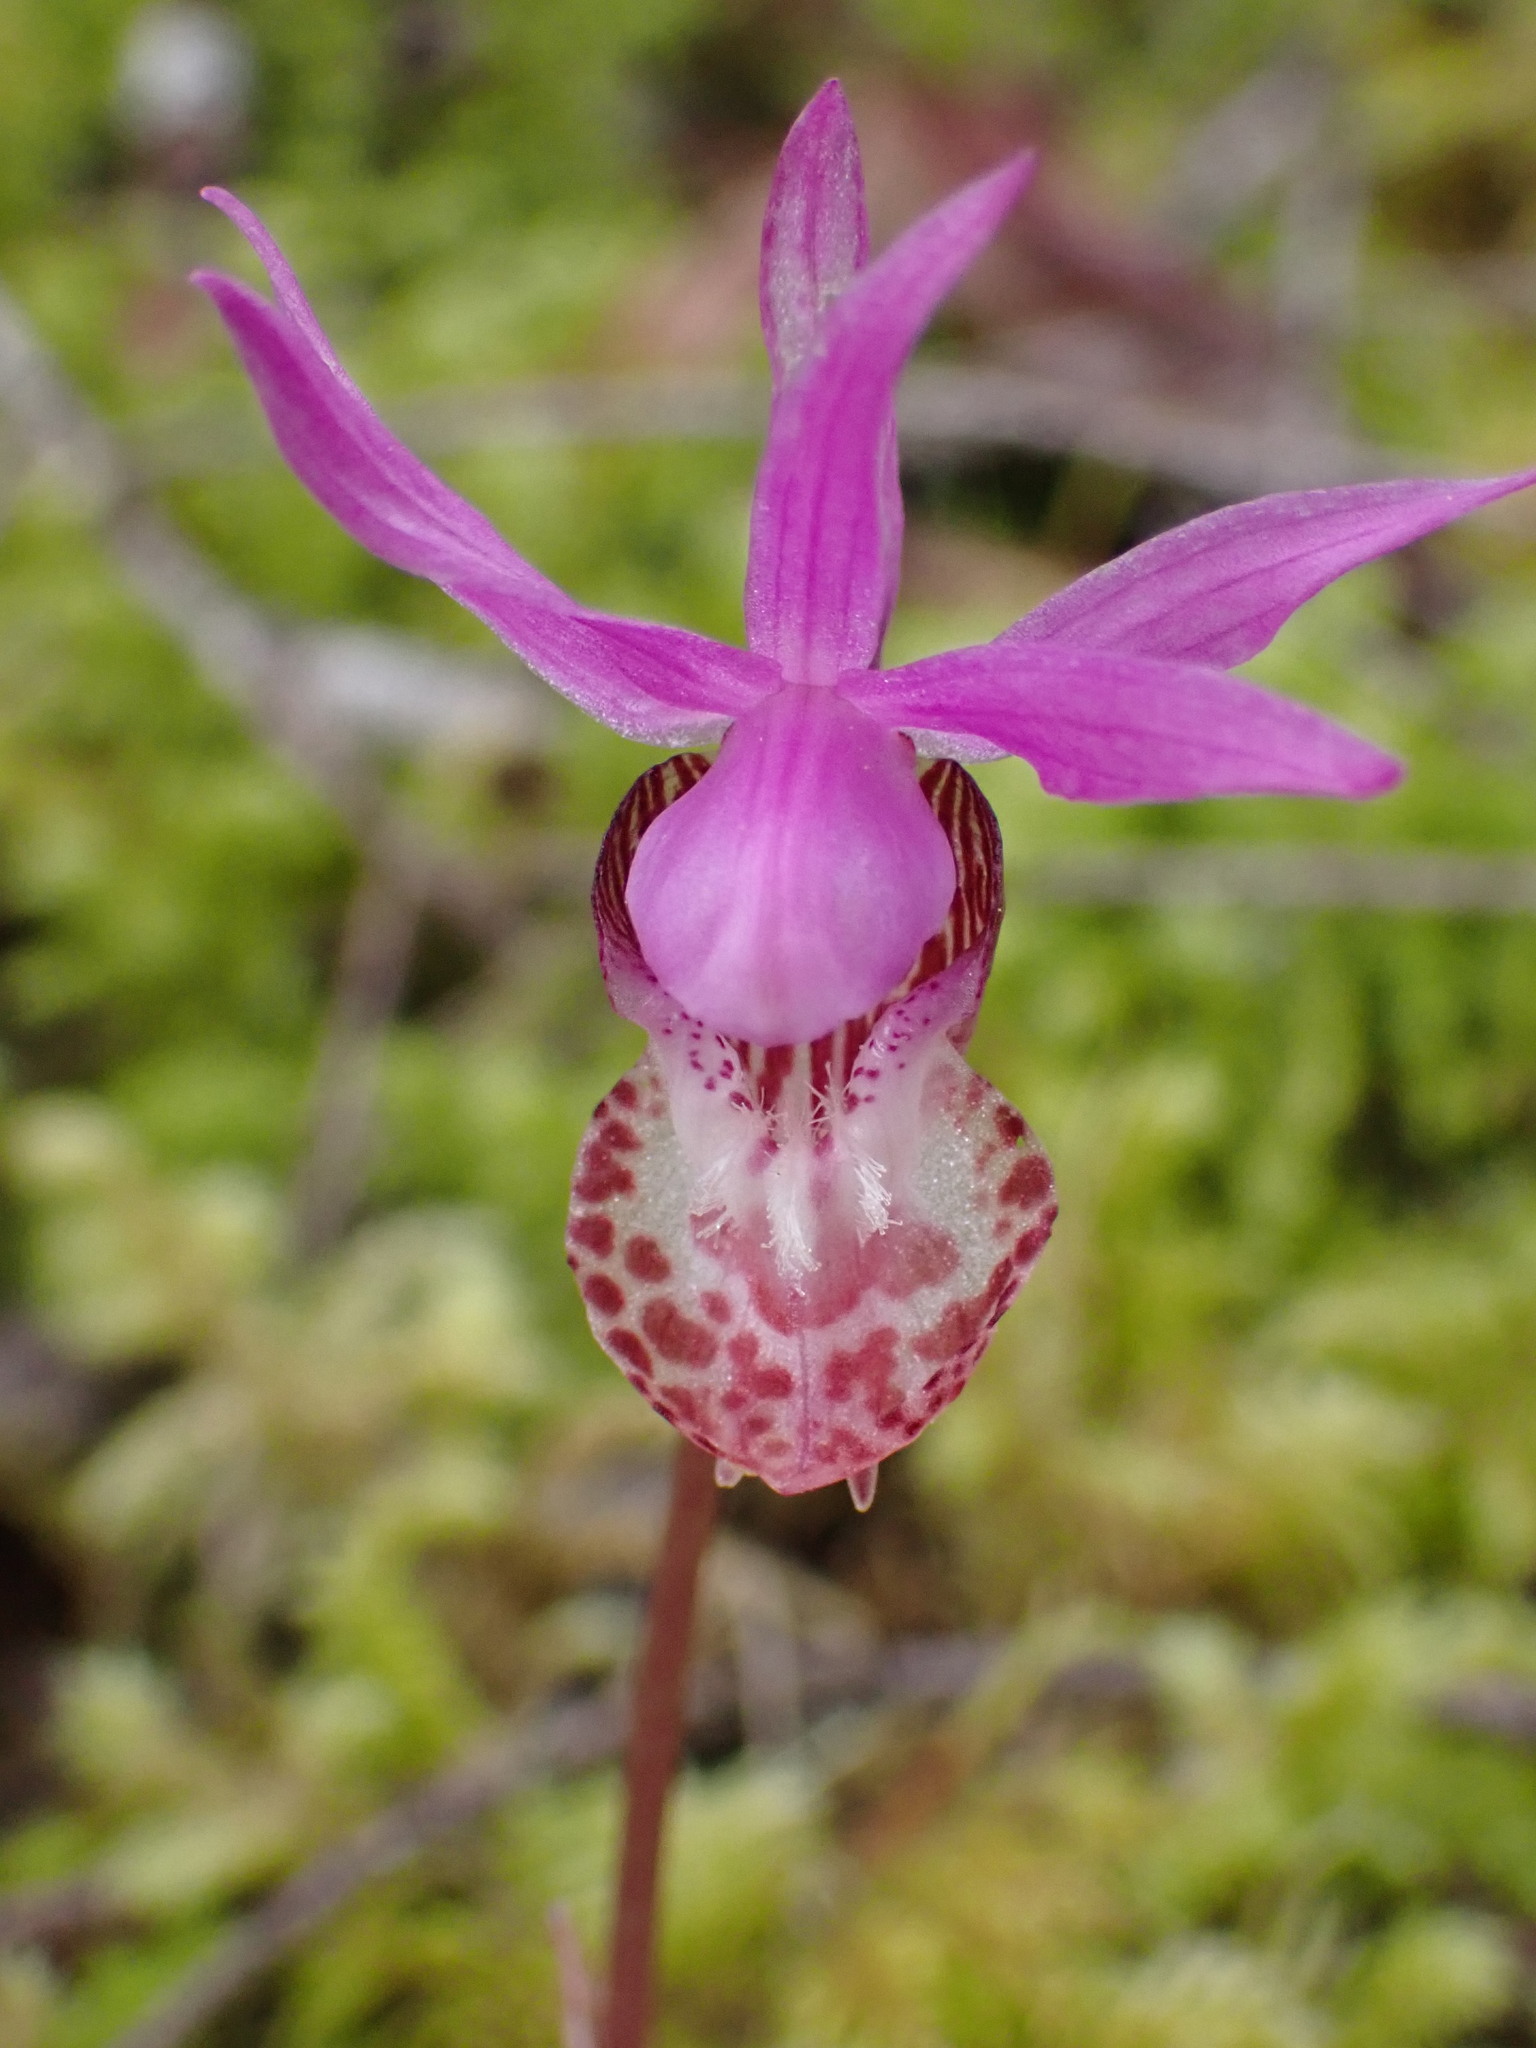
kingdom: Plantae
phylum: Tracheophyta
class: Liliopsida
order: Asparagales
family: Orchidaceae
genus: Calypso
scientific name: Calypso bulbosa
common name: Calypso
